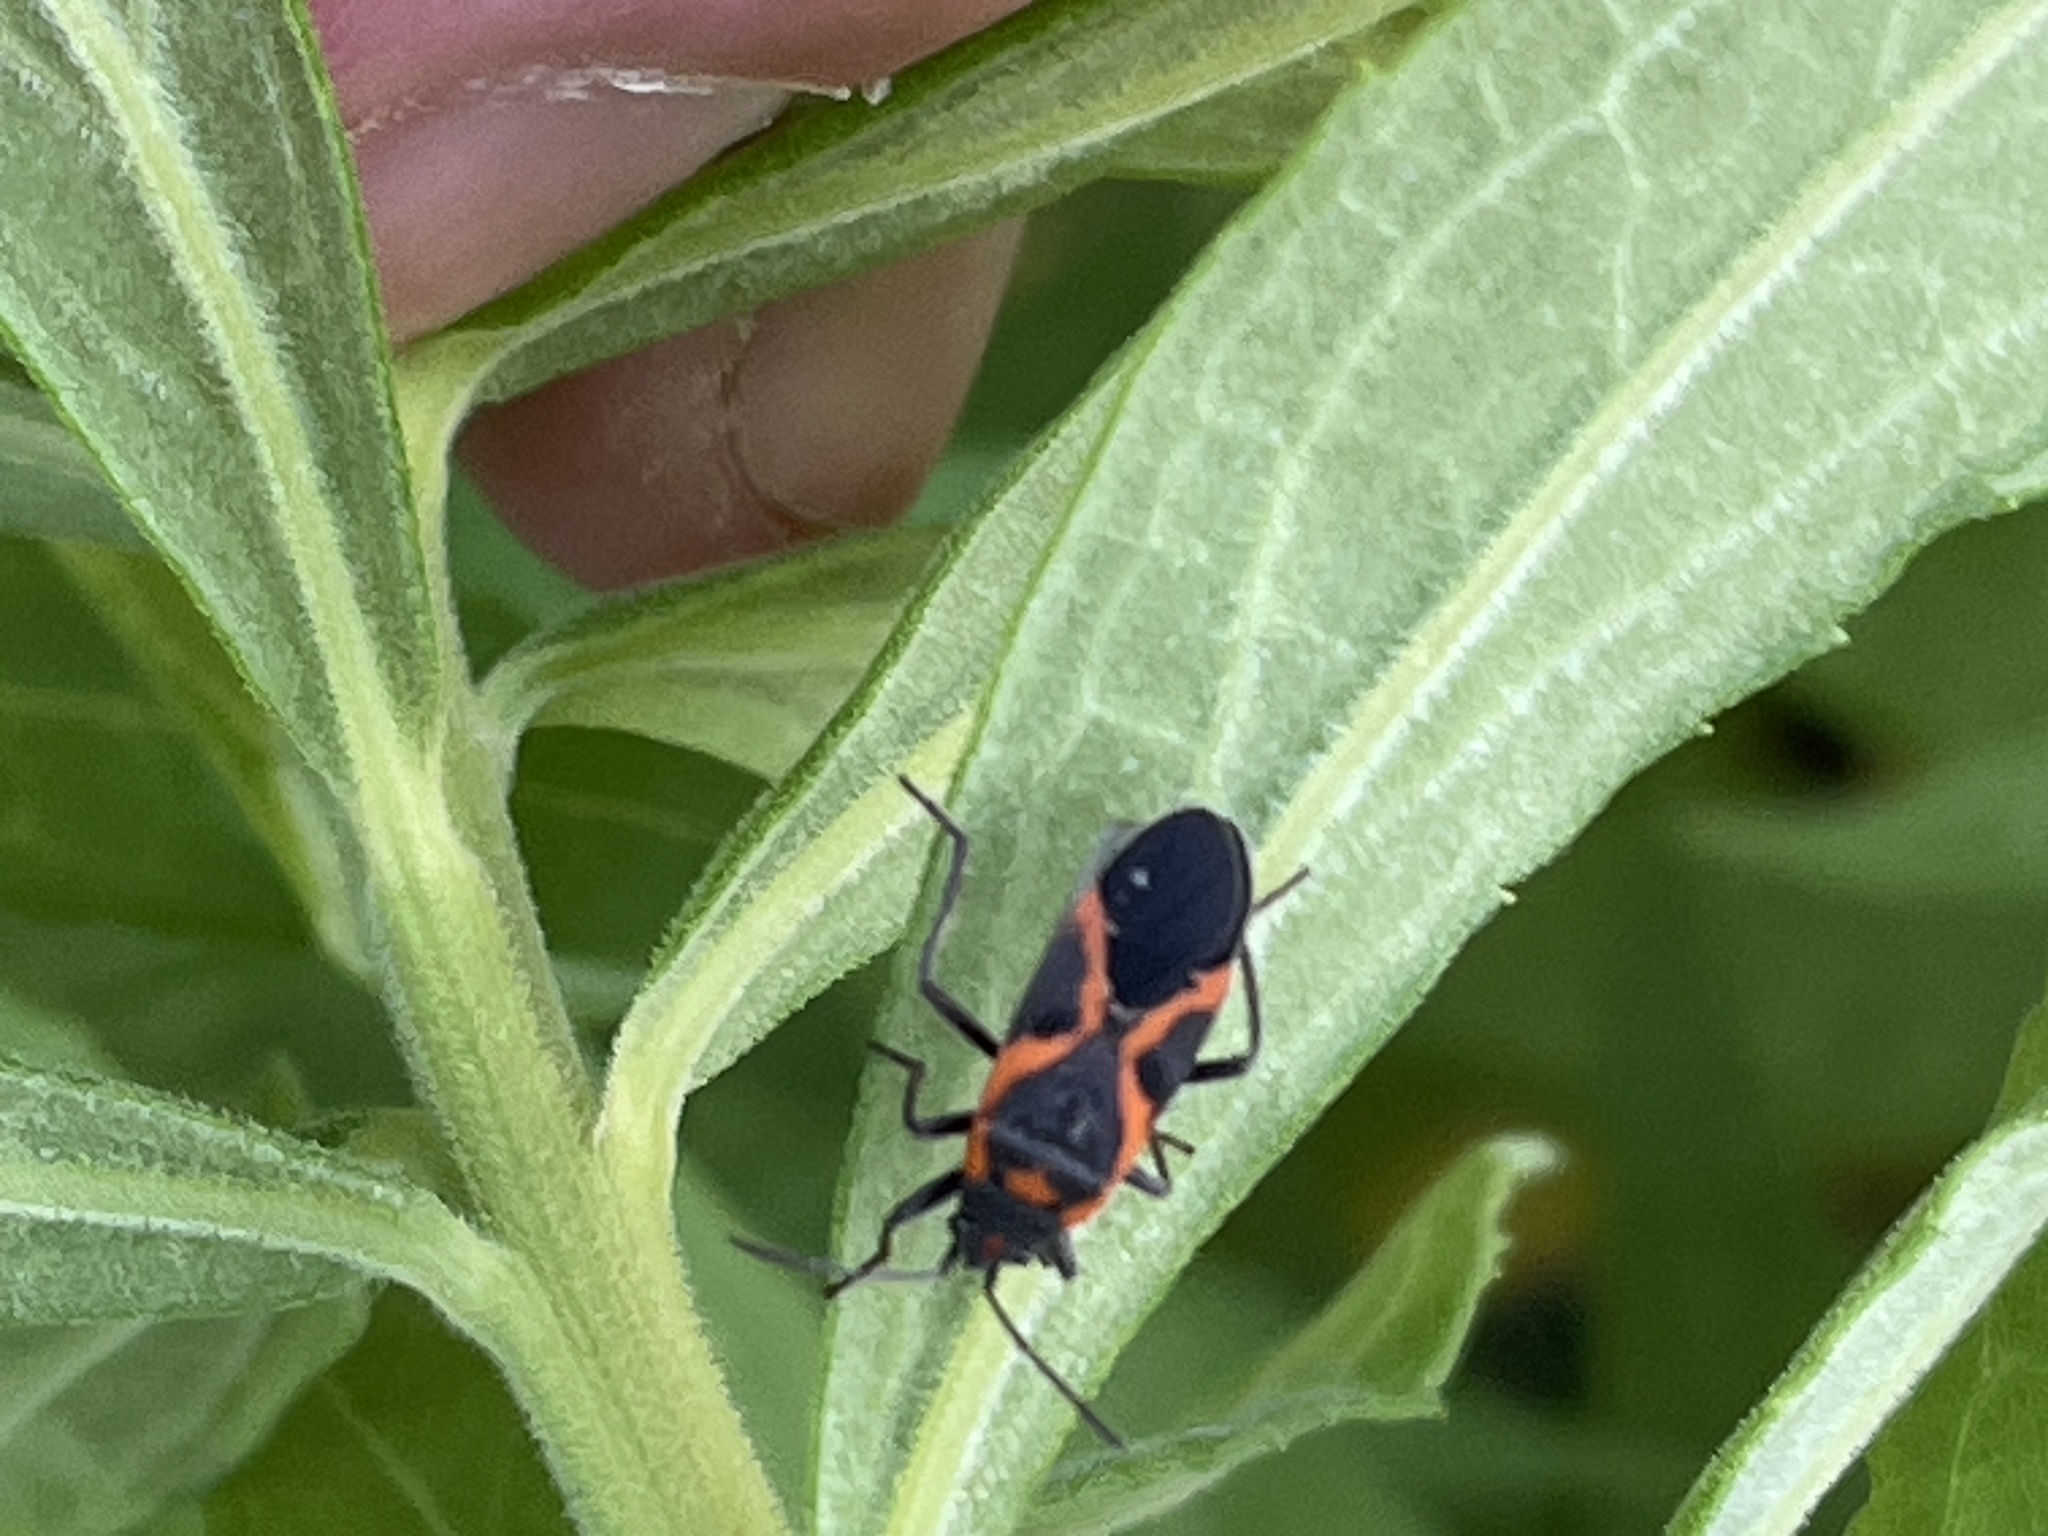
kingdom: Animalia
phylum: Arthropoda
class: Insecta
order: Hemiptera
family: Lygaeidae
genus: Lygaeus
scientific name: Lygaeus kalmii
